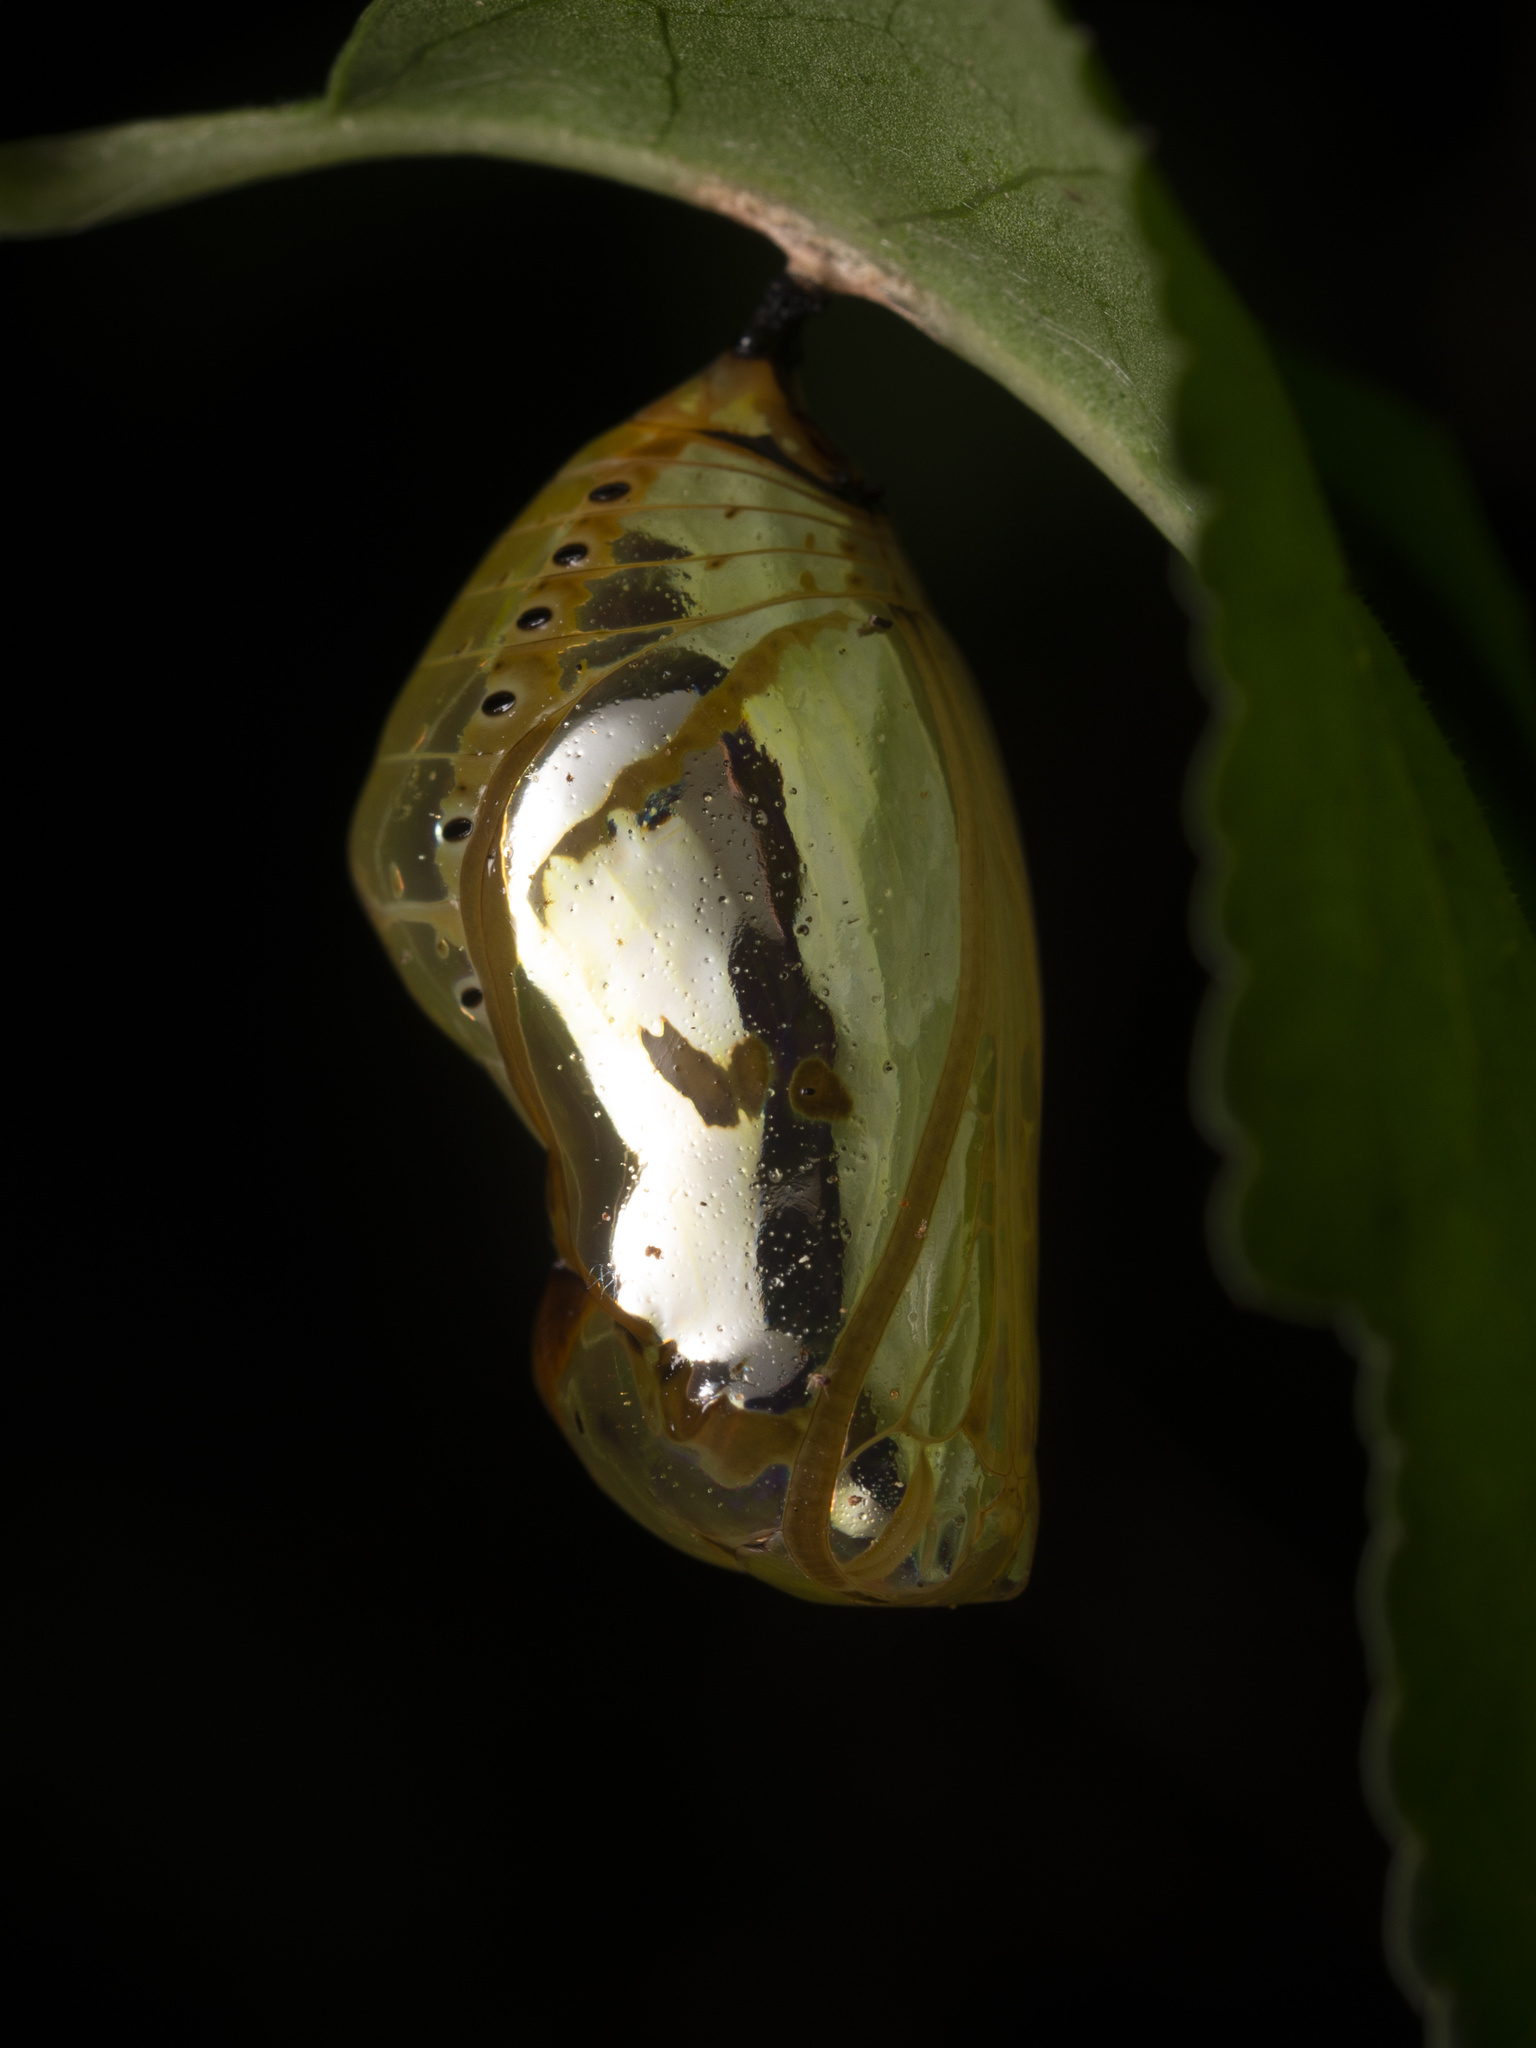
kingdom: Animalia
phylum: Arthropoda
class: Insecta
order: Lepidoptera
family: Nymphalidae
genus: Euploea
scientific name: Euploea core
